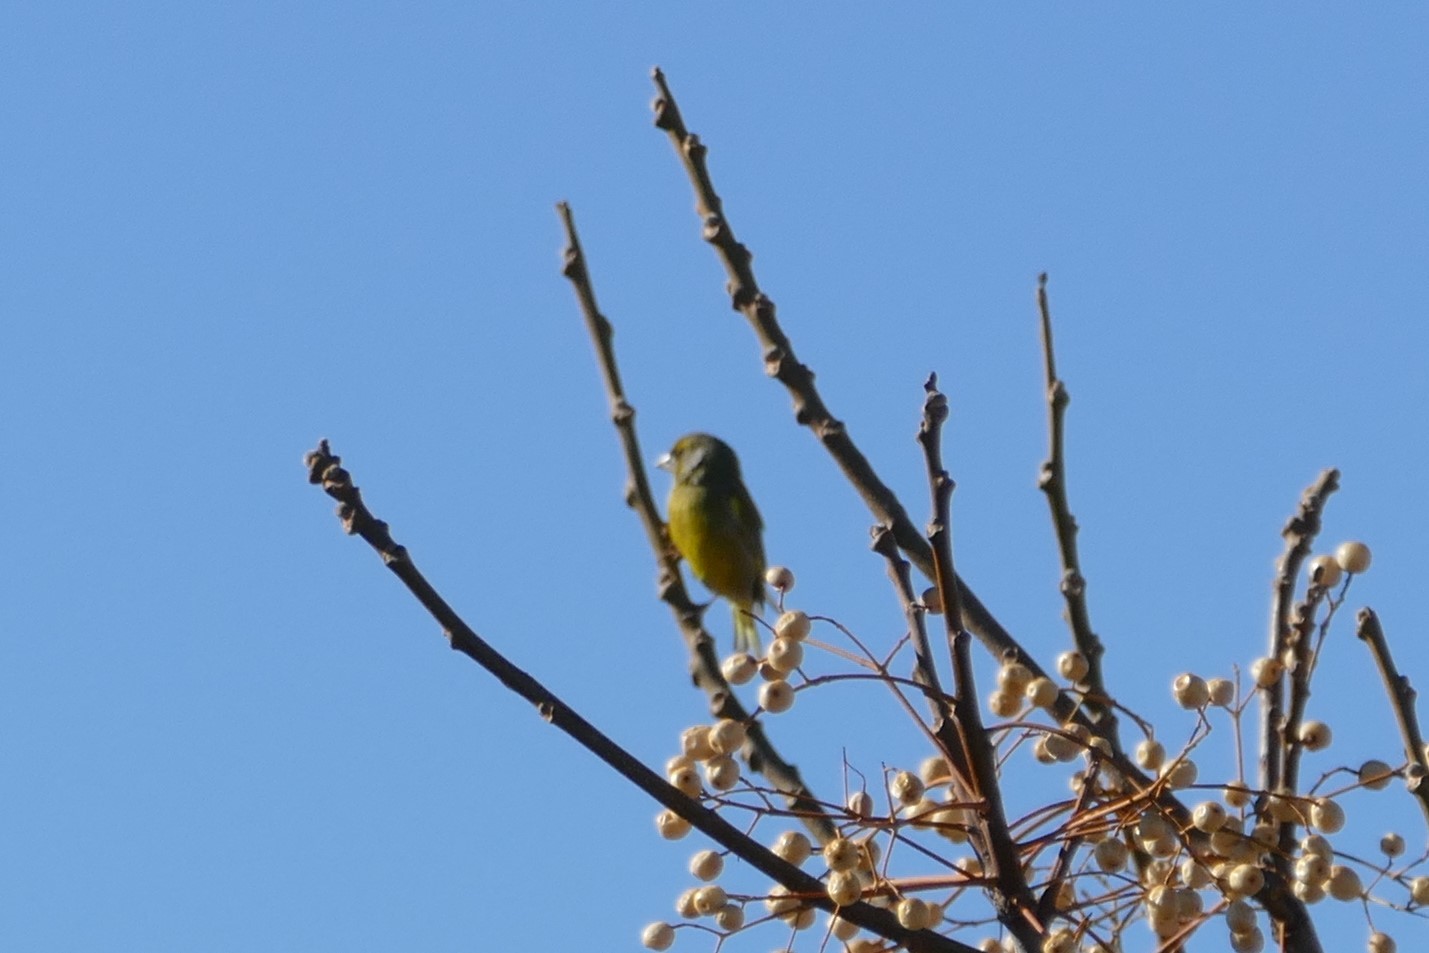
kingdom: Plantae
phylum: Tracheophyta
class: Liliopsida
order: Poales
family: Poaceae
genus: Chloris
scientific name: Chloris chloris
